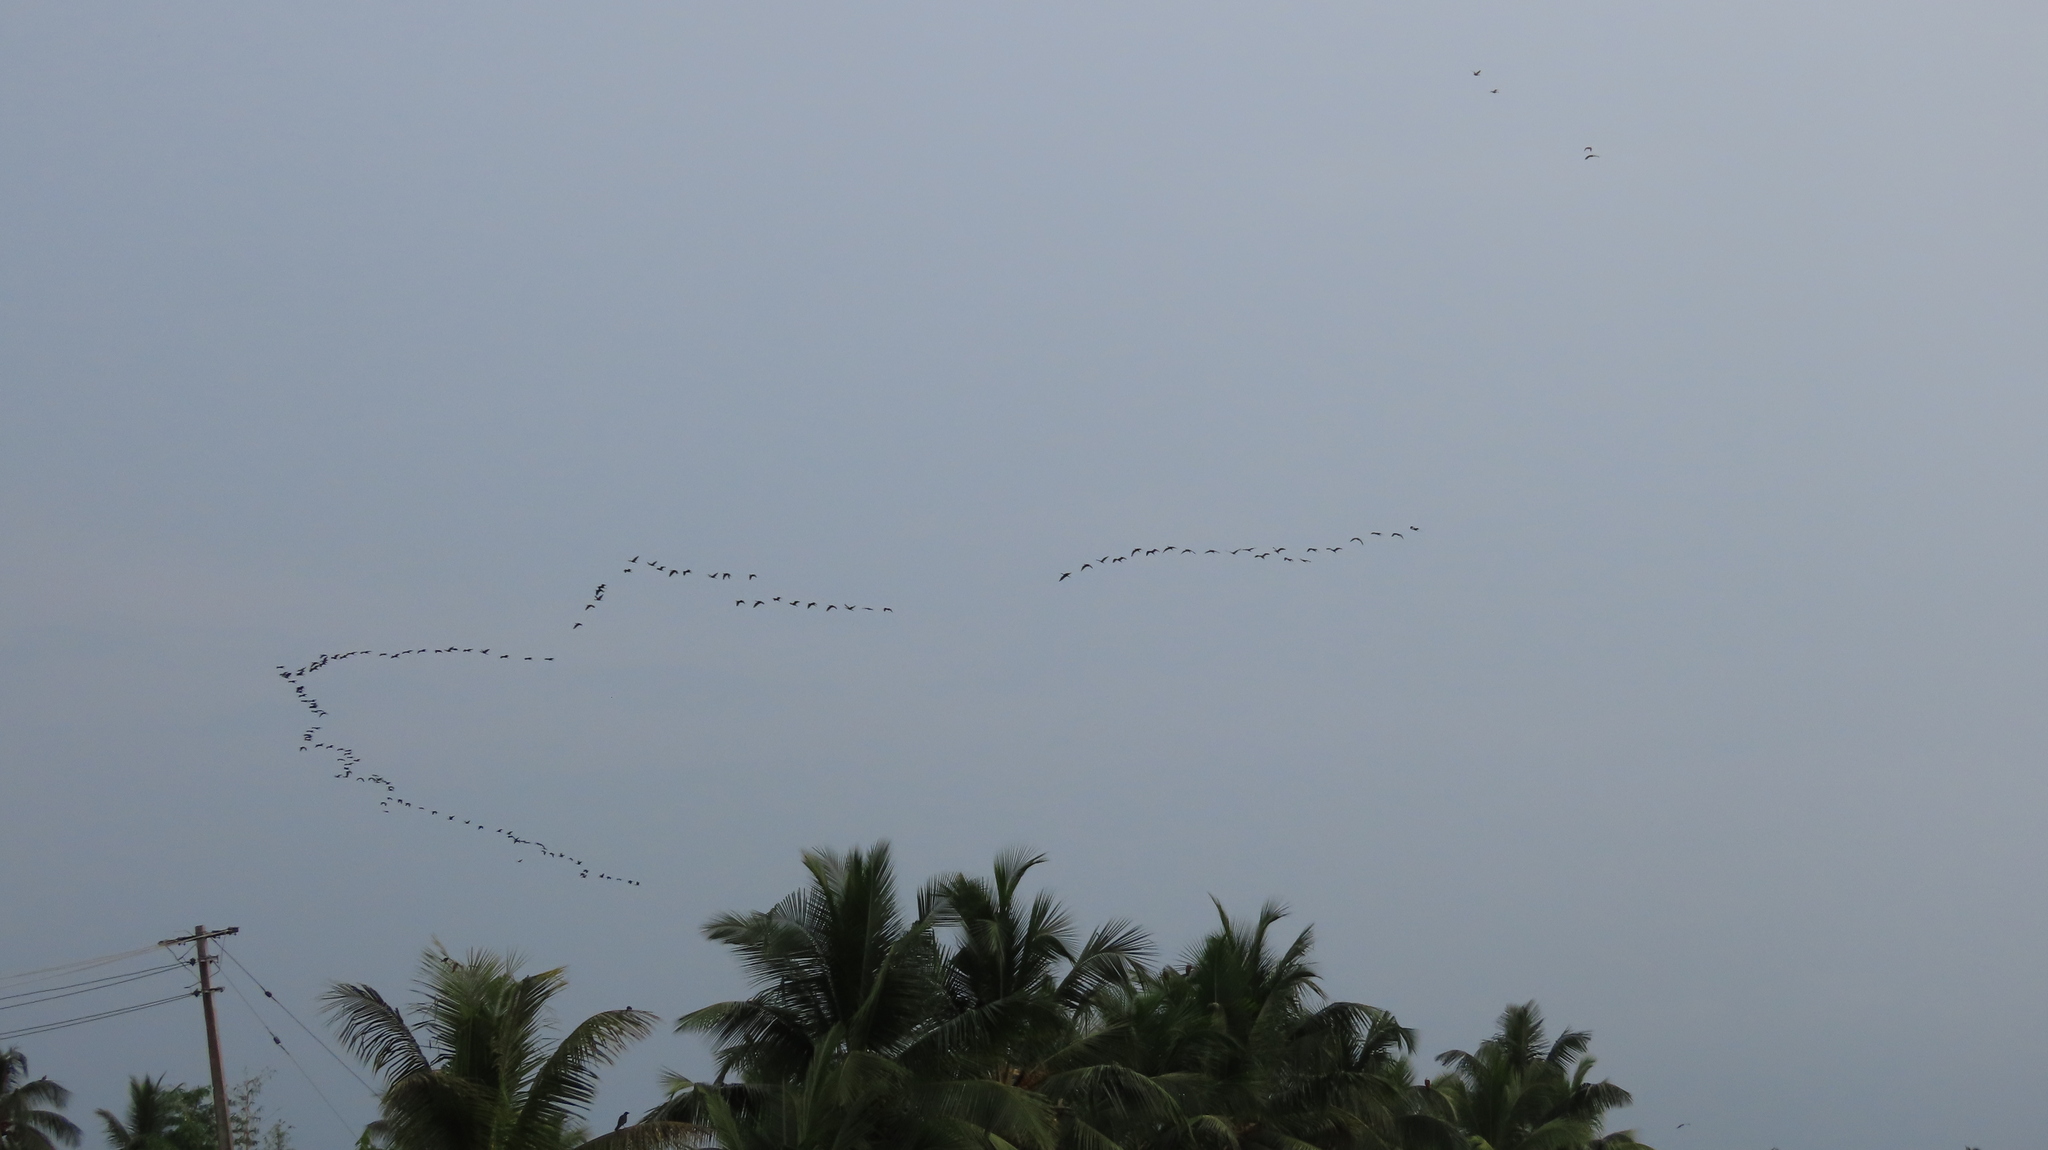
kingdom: Animalia
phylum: Chordata
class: Aves
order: Pelecaniformes
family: Threskiornithidae
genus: Plegadis
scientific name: Plegadis falcinellus
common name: Glossy ibis
